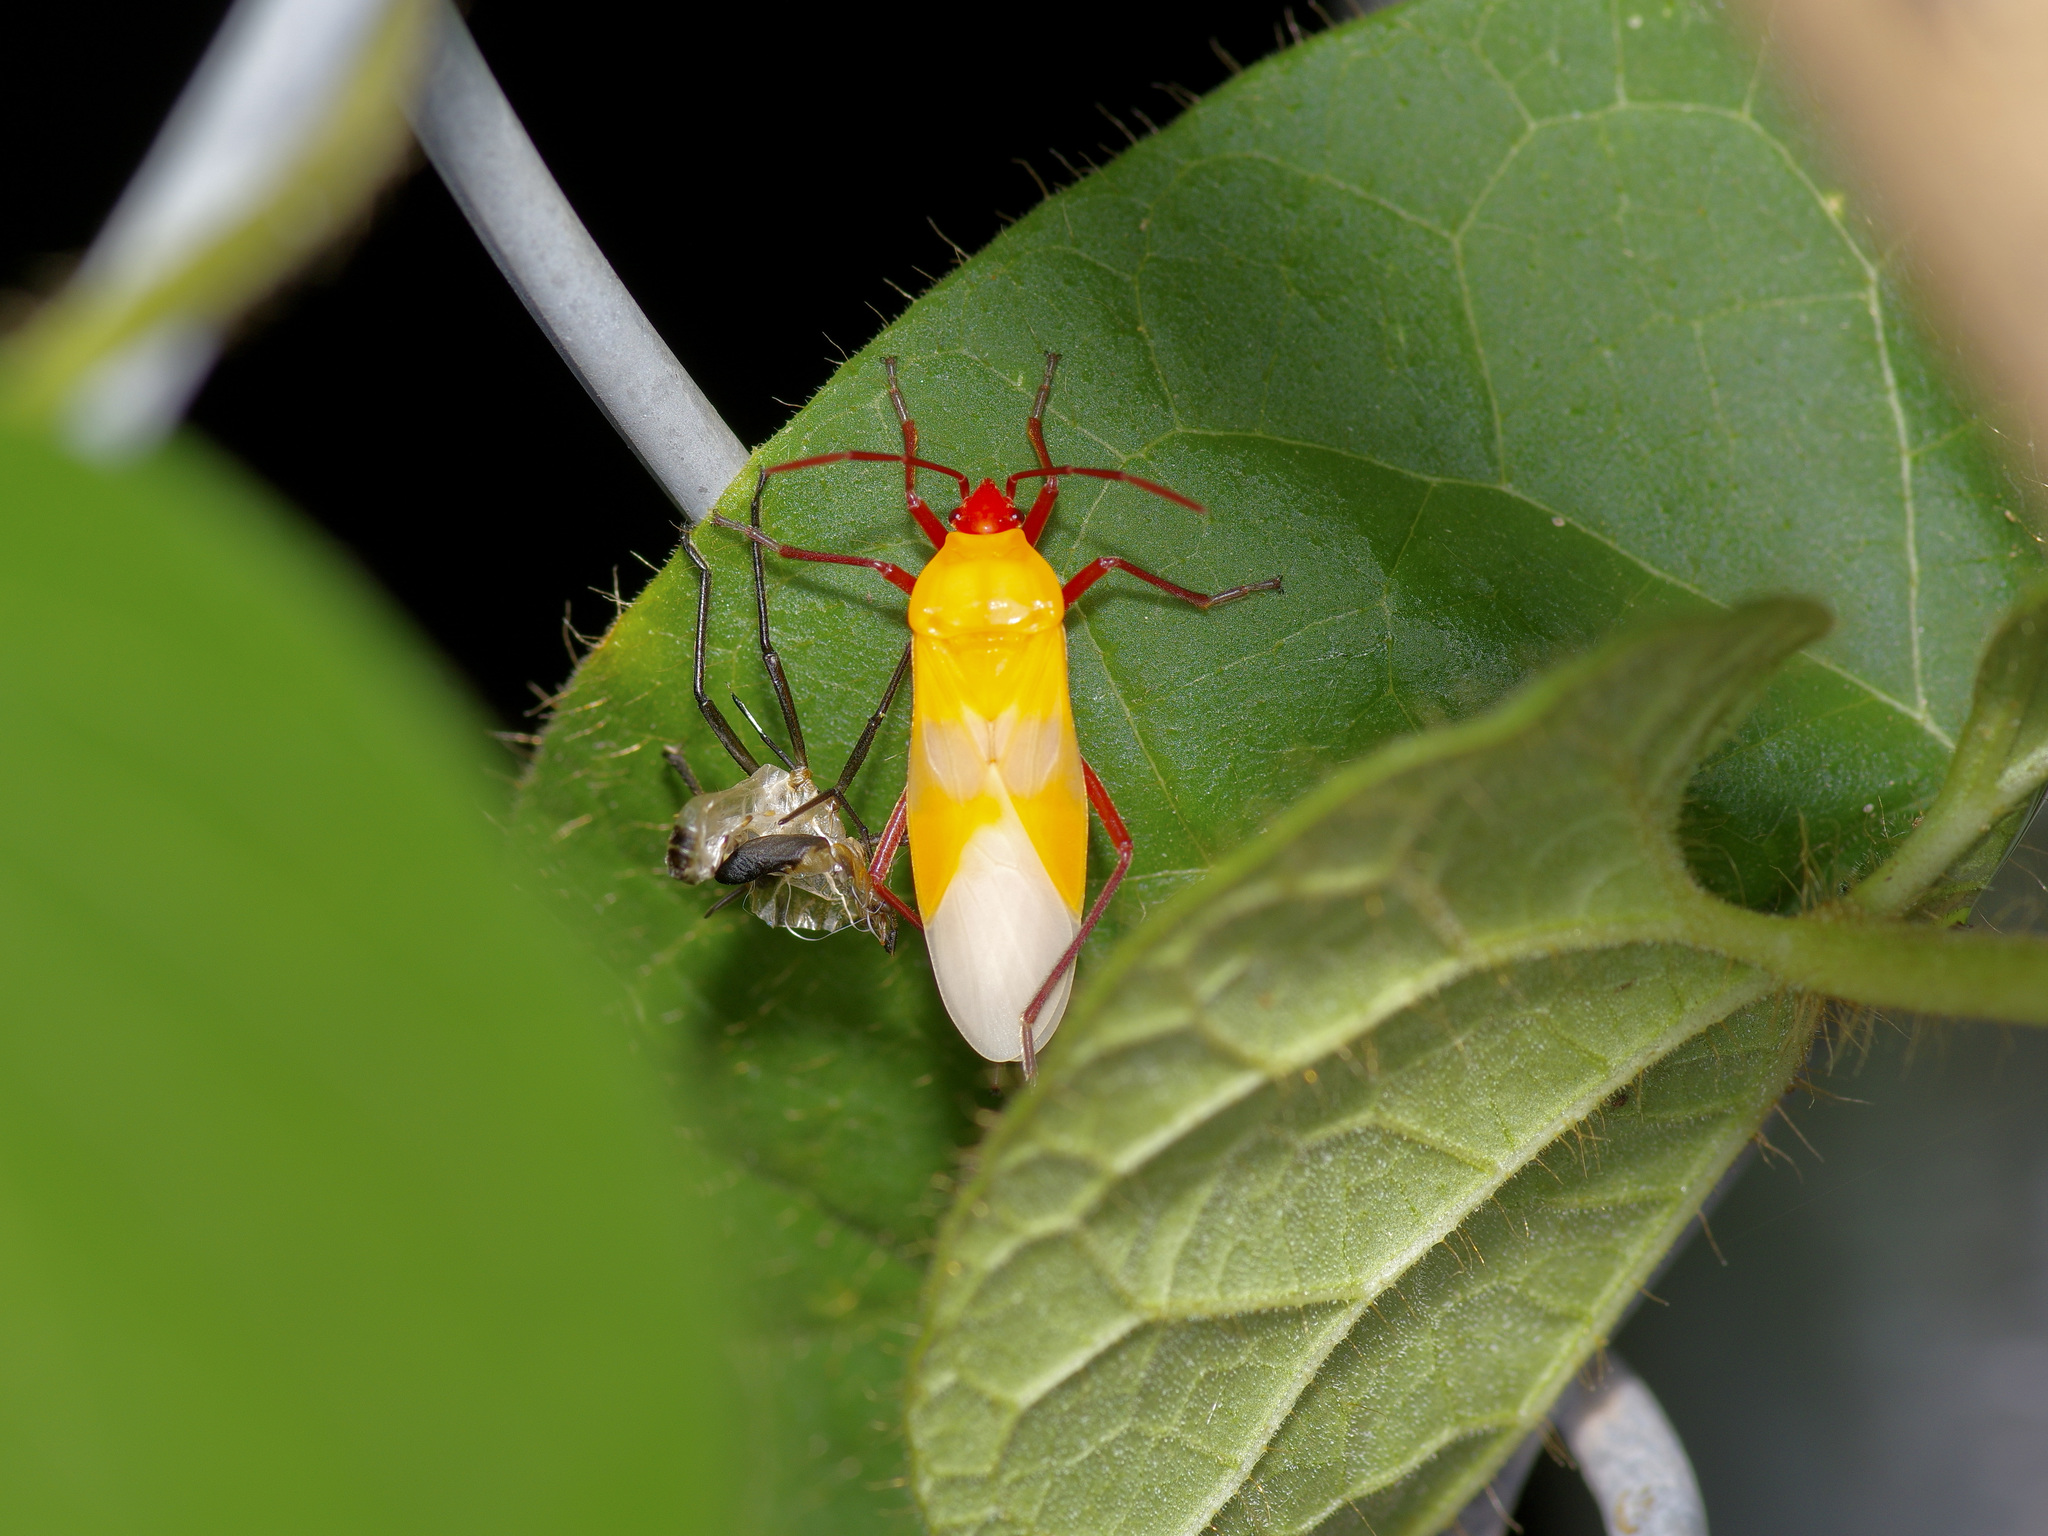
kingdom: Animalia
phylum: Arthropoda
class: Insecta
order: Hemiptera
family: Lygaeidae
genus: Oncopeltus
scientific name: Oncopeltus fasciatus
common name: Large milkweed bug
